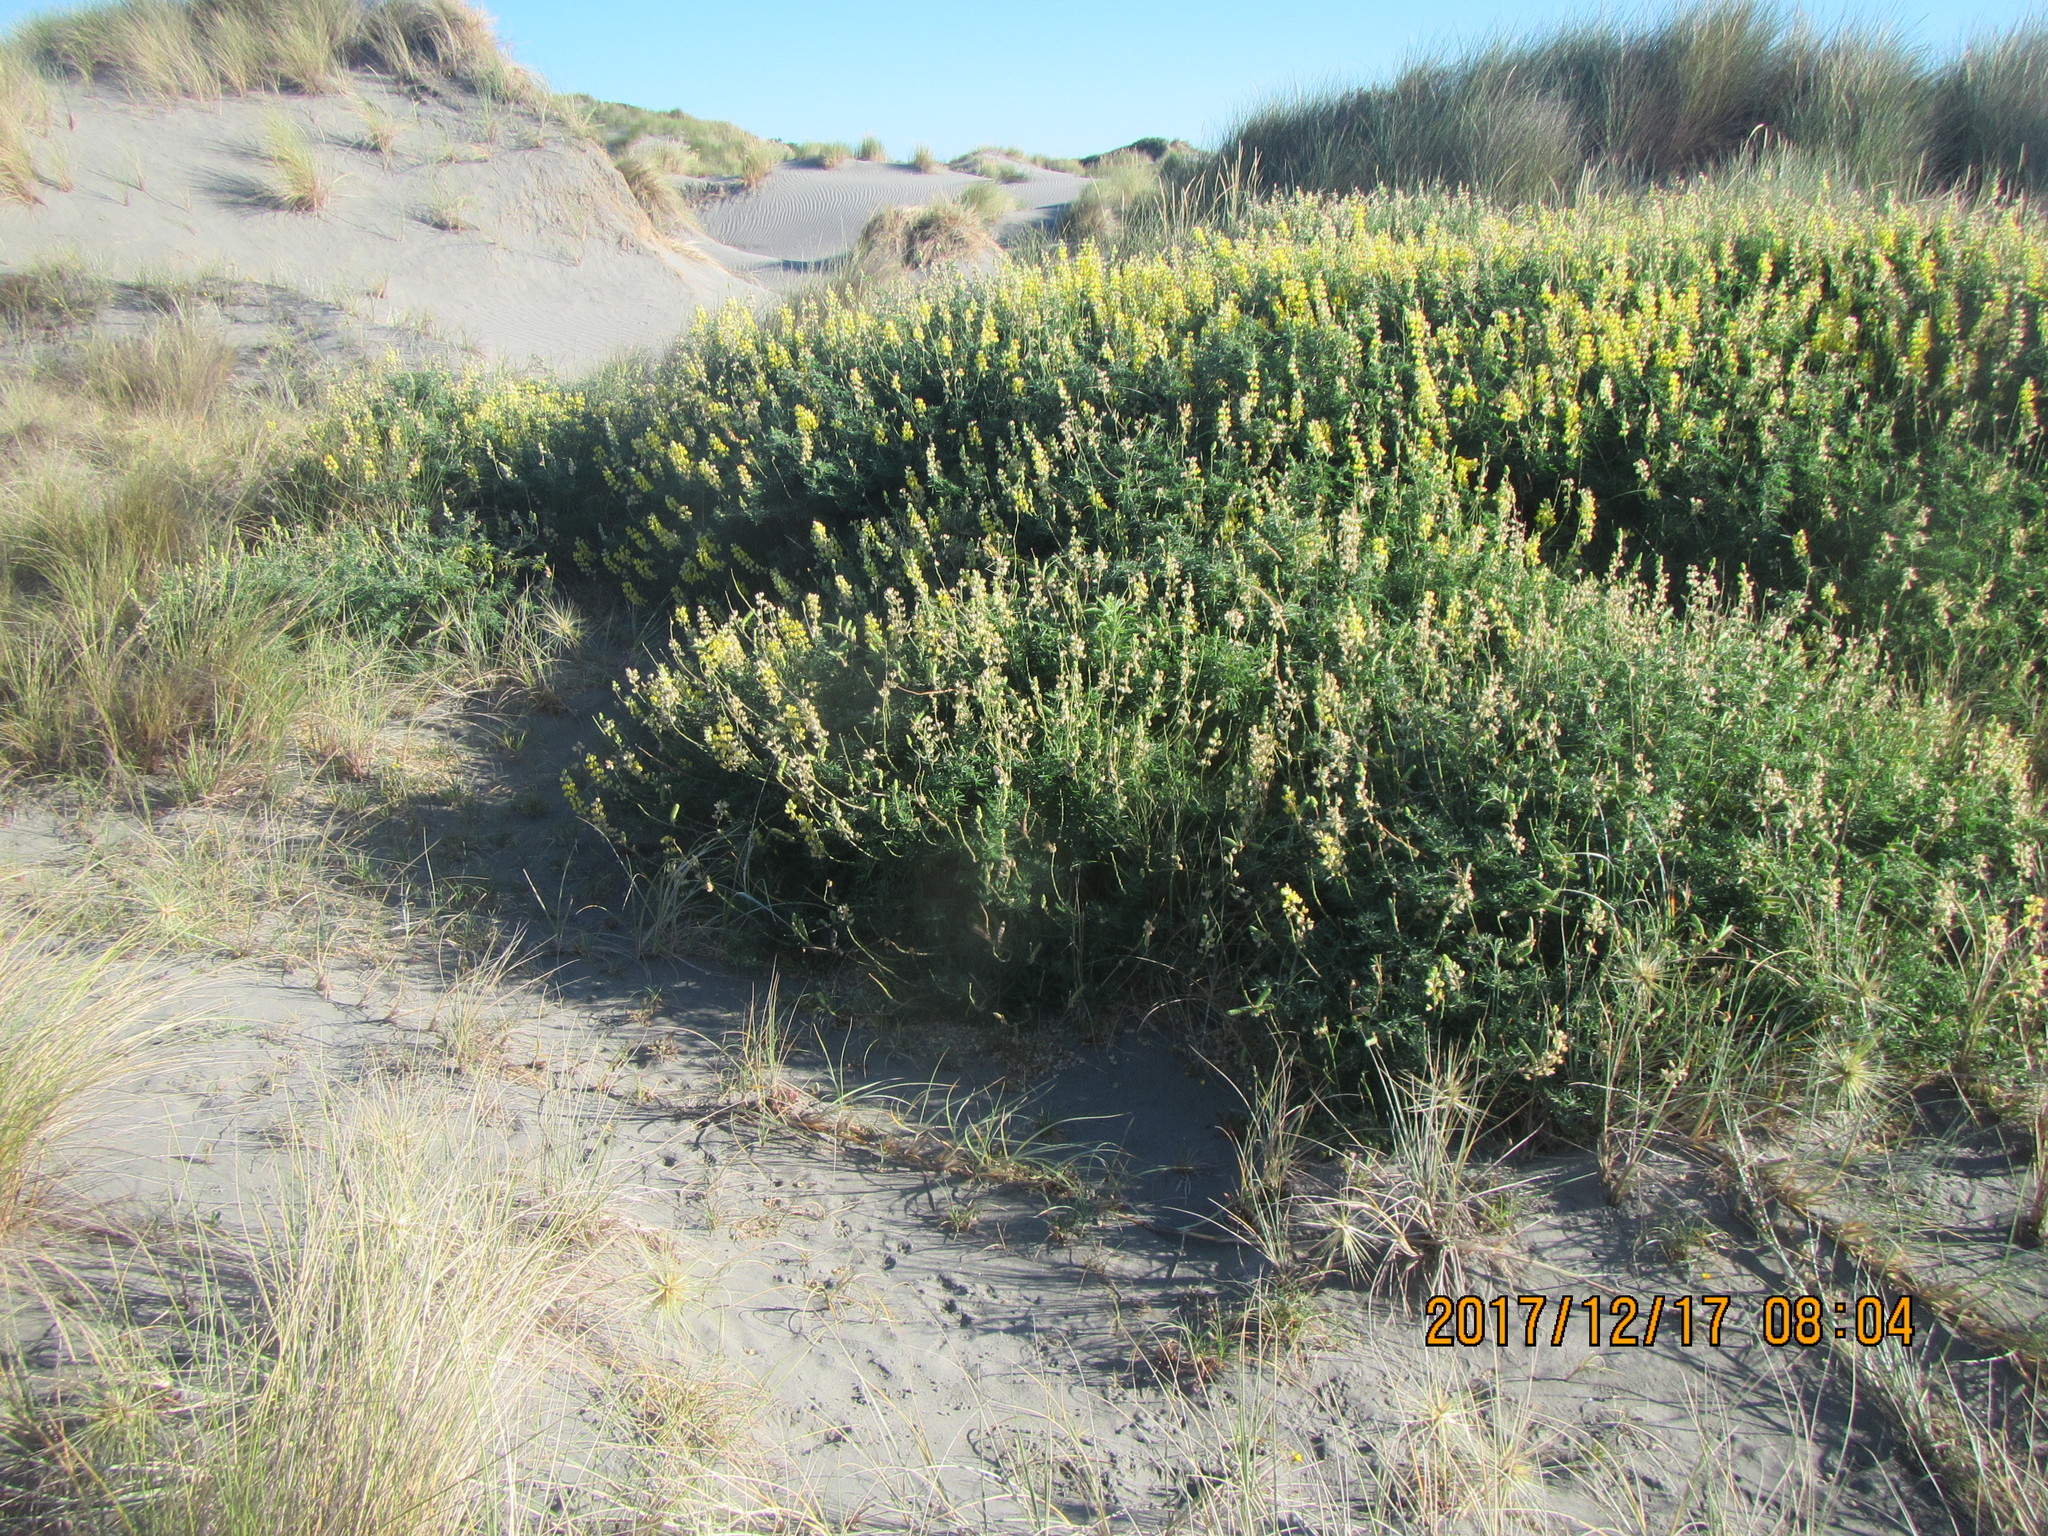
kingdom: Plantae
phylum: Tracheophyta
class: Magnoliopsida
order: Fabales
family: Fabaceae
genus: Lupinus
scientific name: Lupinus arboreus
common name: Yellow bush lupine
